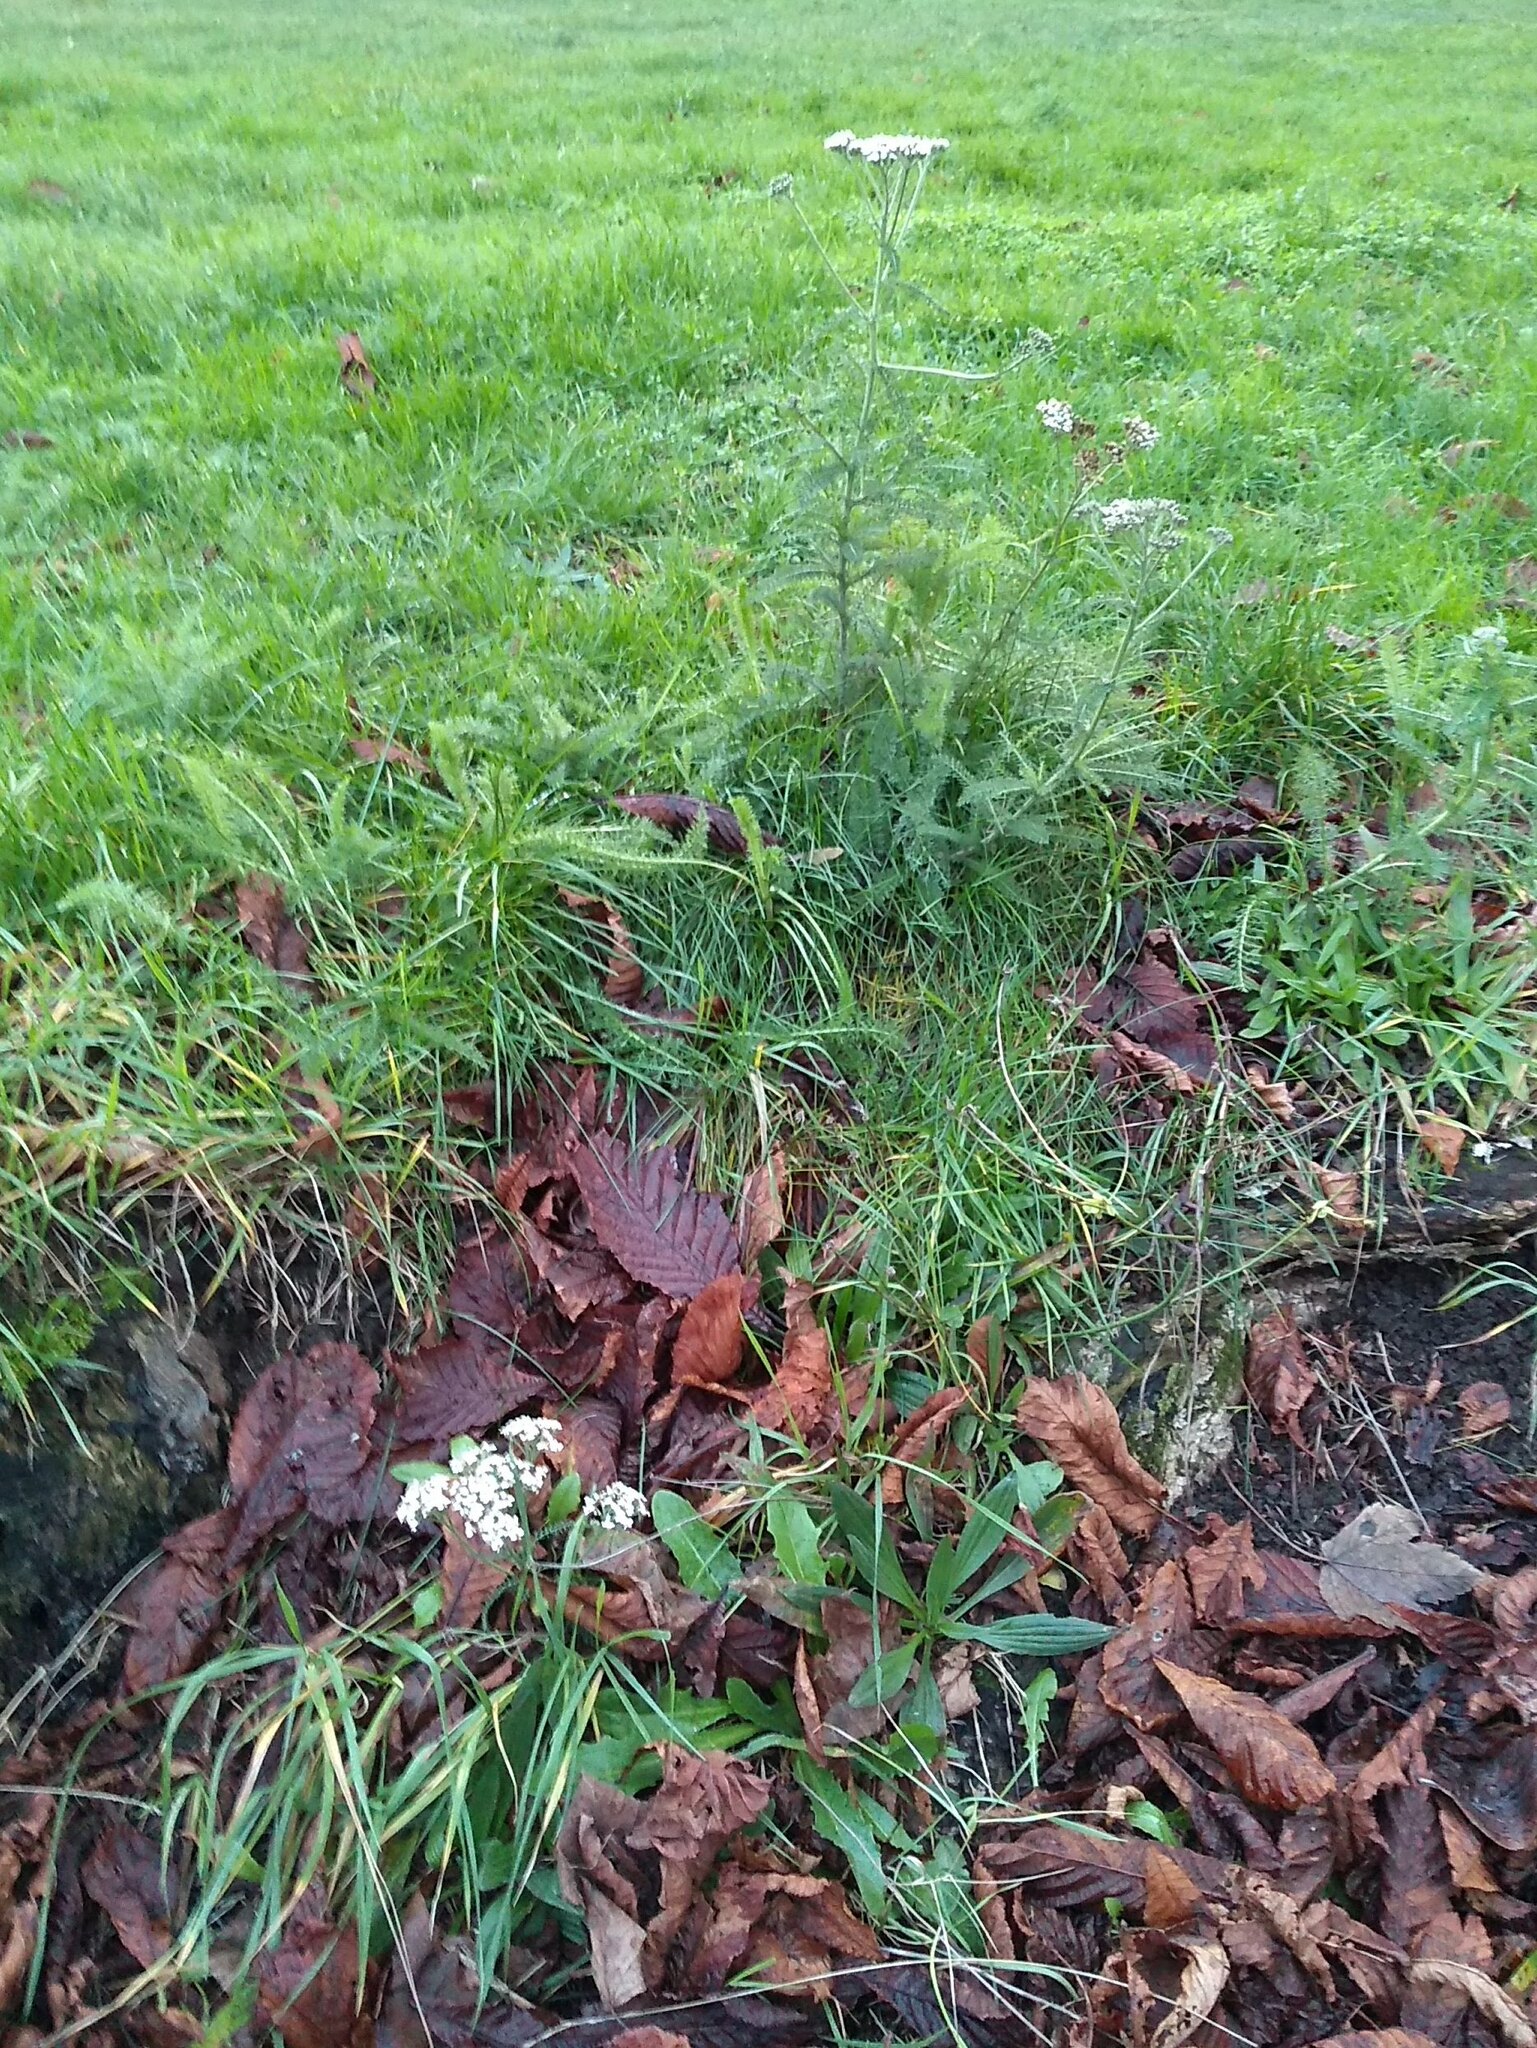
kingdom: Plantae
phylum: Tracheophyta
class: Magnoliopsida
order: Asterales
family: Asteraceae
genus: Achillea
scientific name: Achillea millefolium
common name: Yarrow
